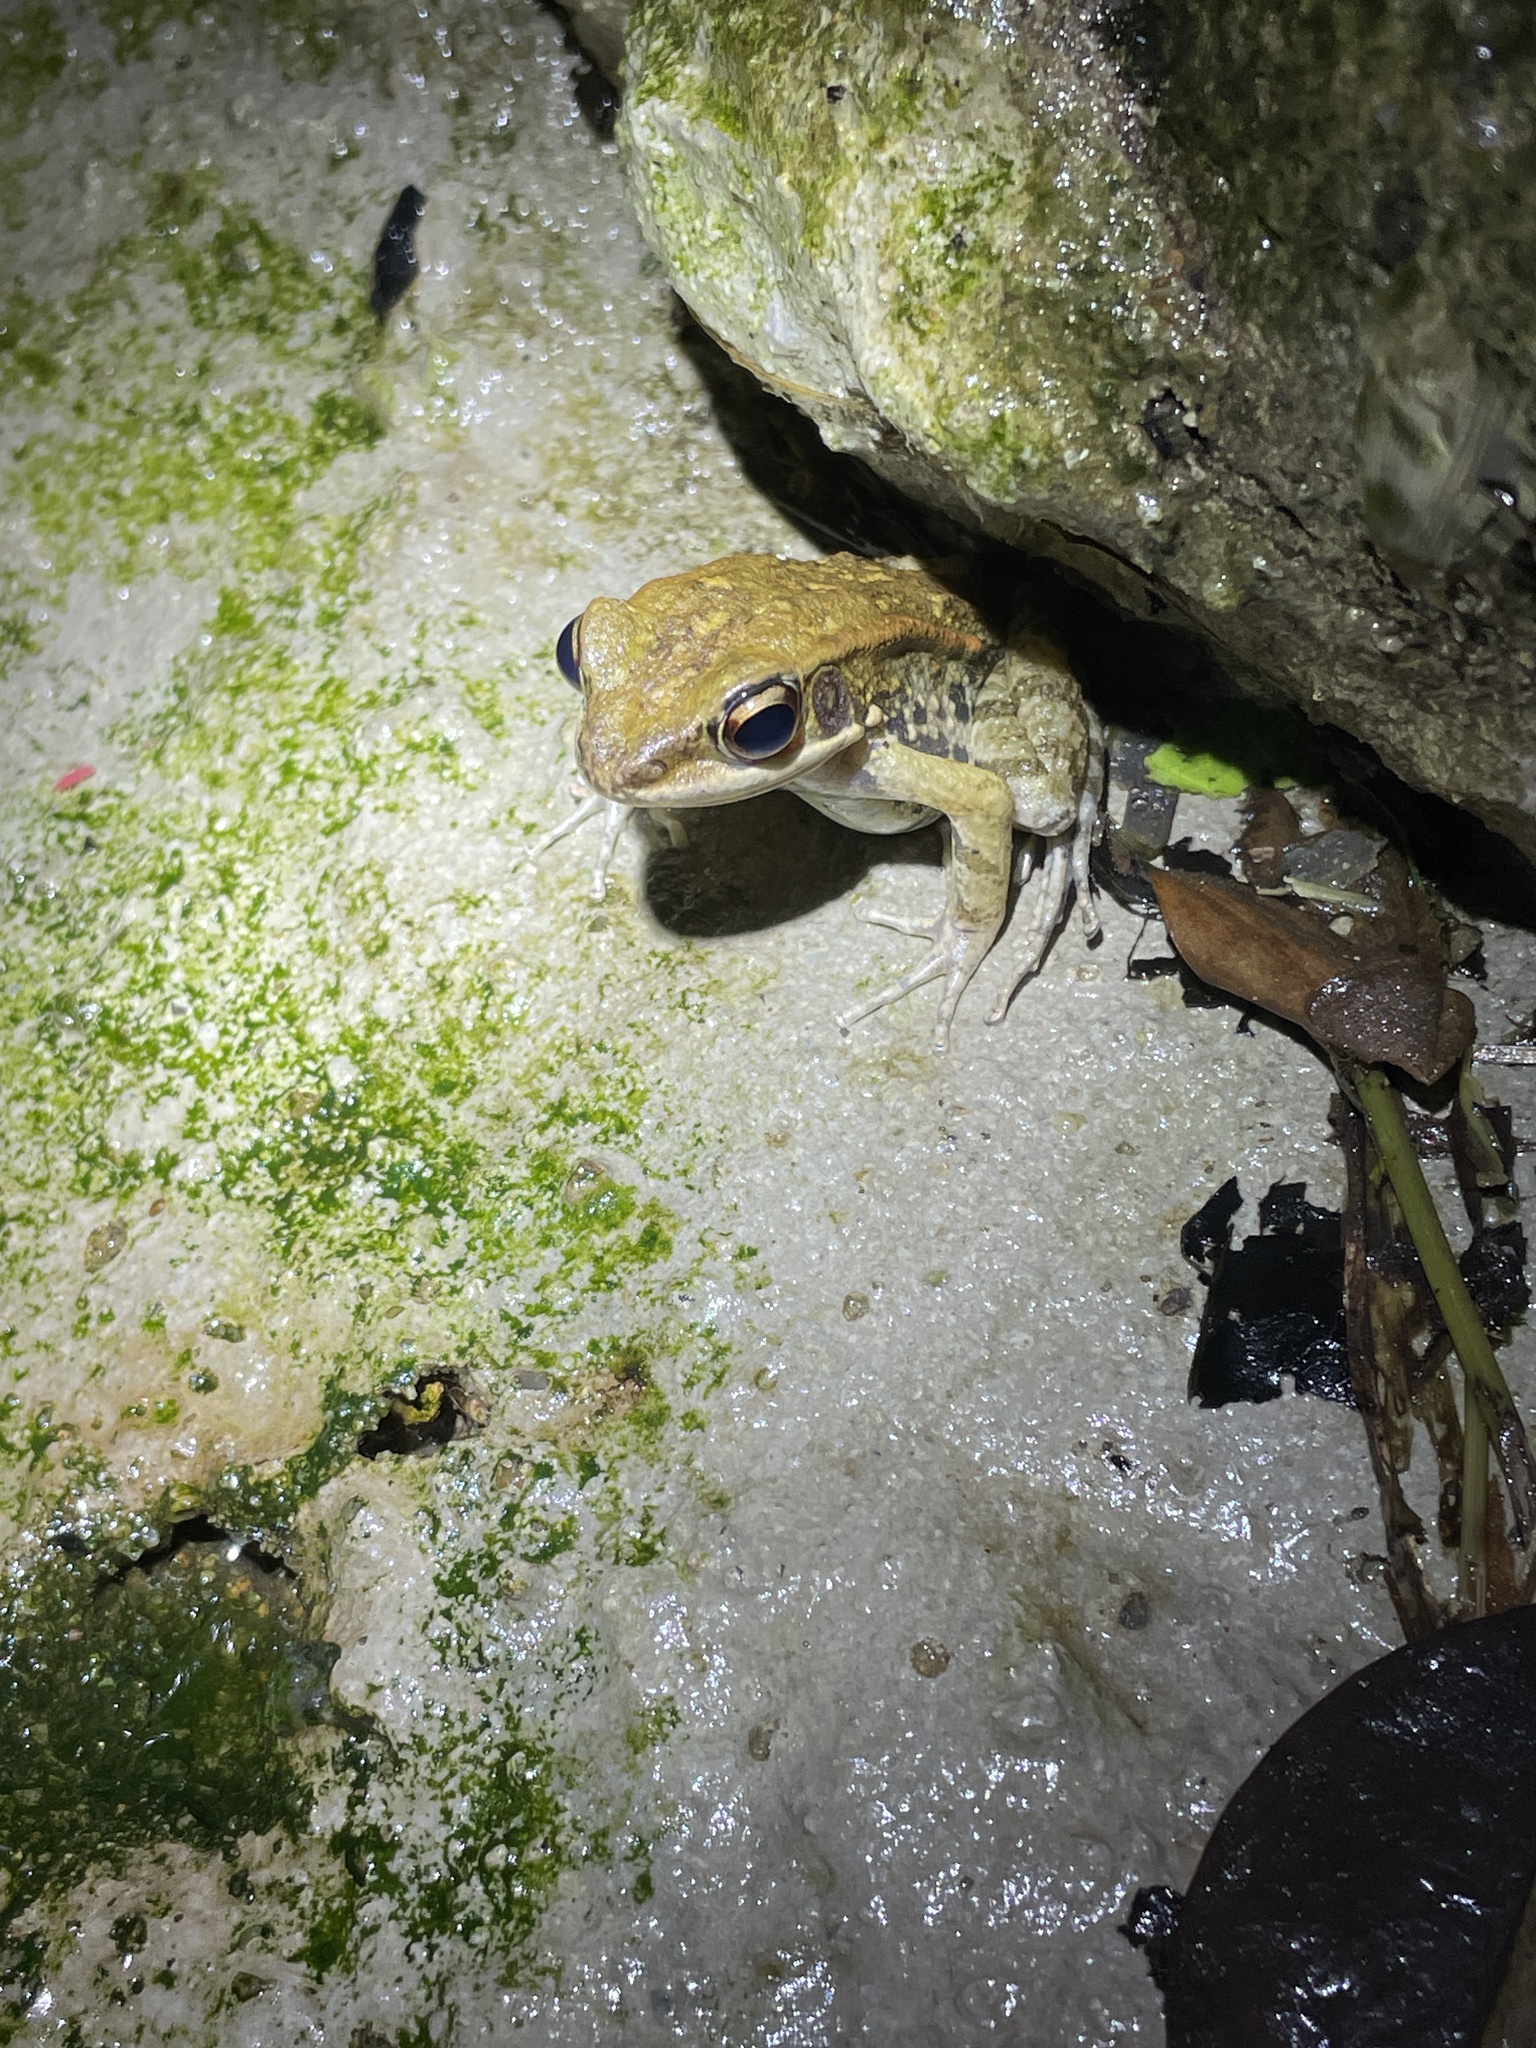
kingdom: Animalia
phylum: Chordata
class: Amphibia
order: Anura
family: Ranidae
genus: Hylarana
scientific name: Hylarana latouchii
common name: Broad-folded frog
